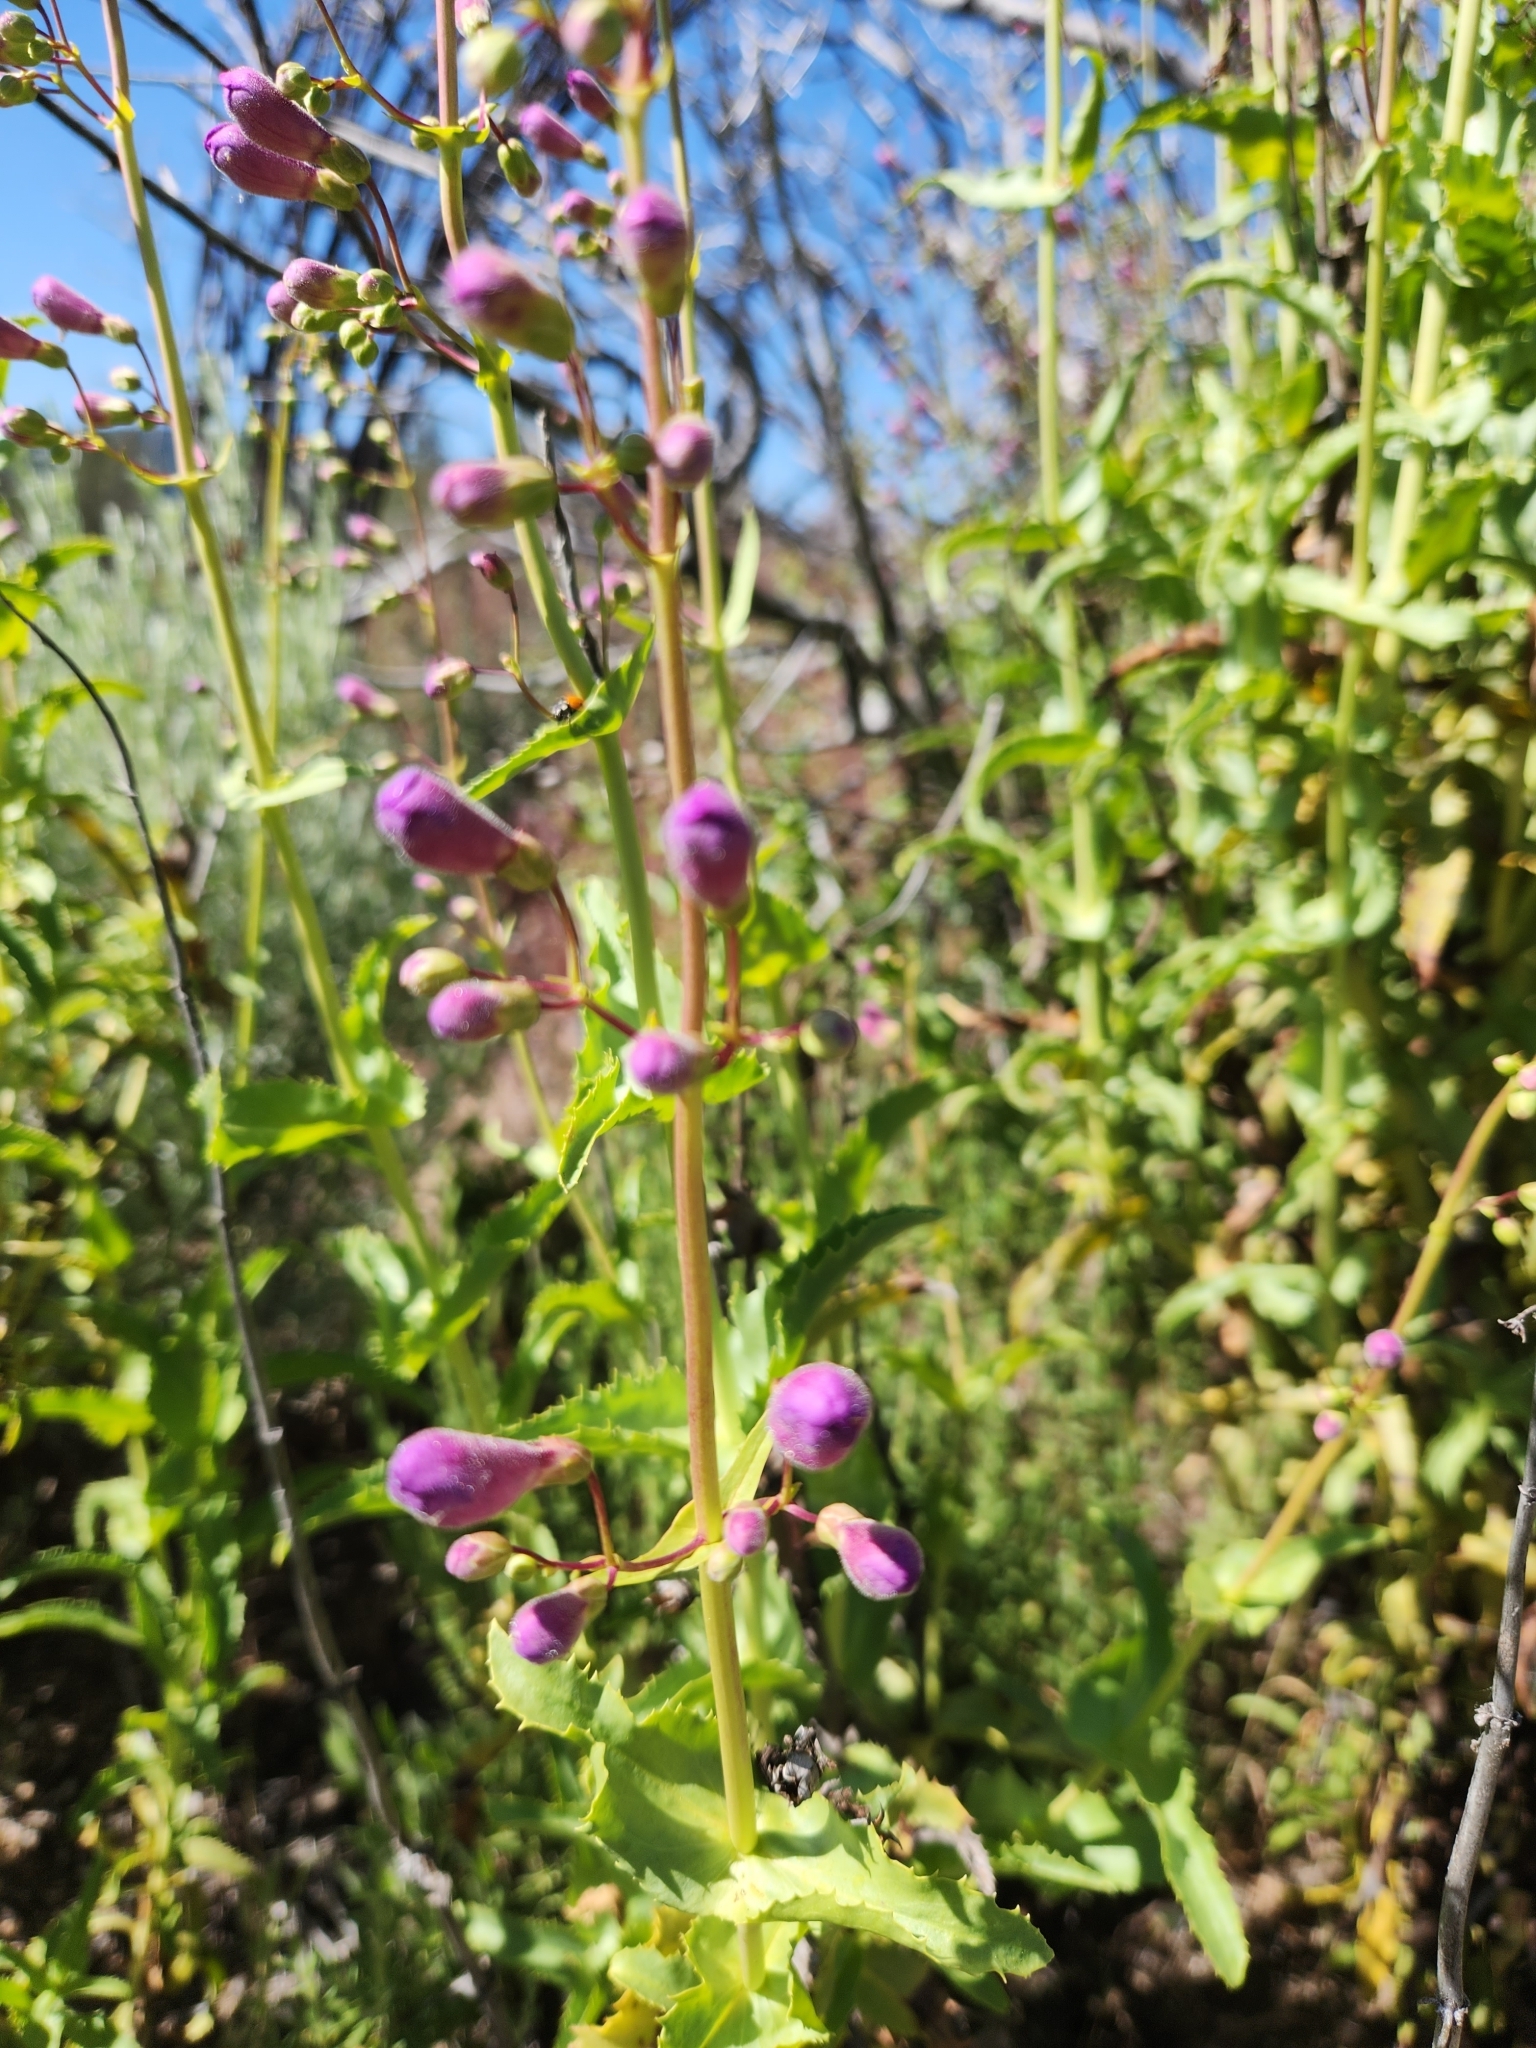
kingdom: Plantae
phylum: Tracheophyta
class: Magnoliopsida
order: Lamiales
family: Plantaginaceae
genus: Penstemon
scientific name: Penstemon spectabilis
